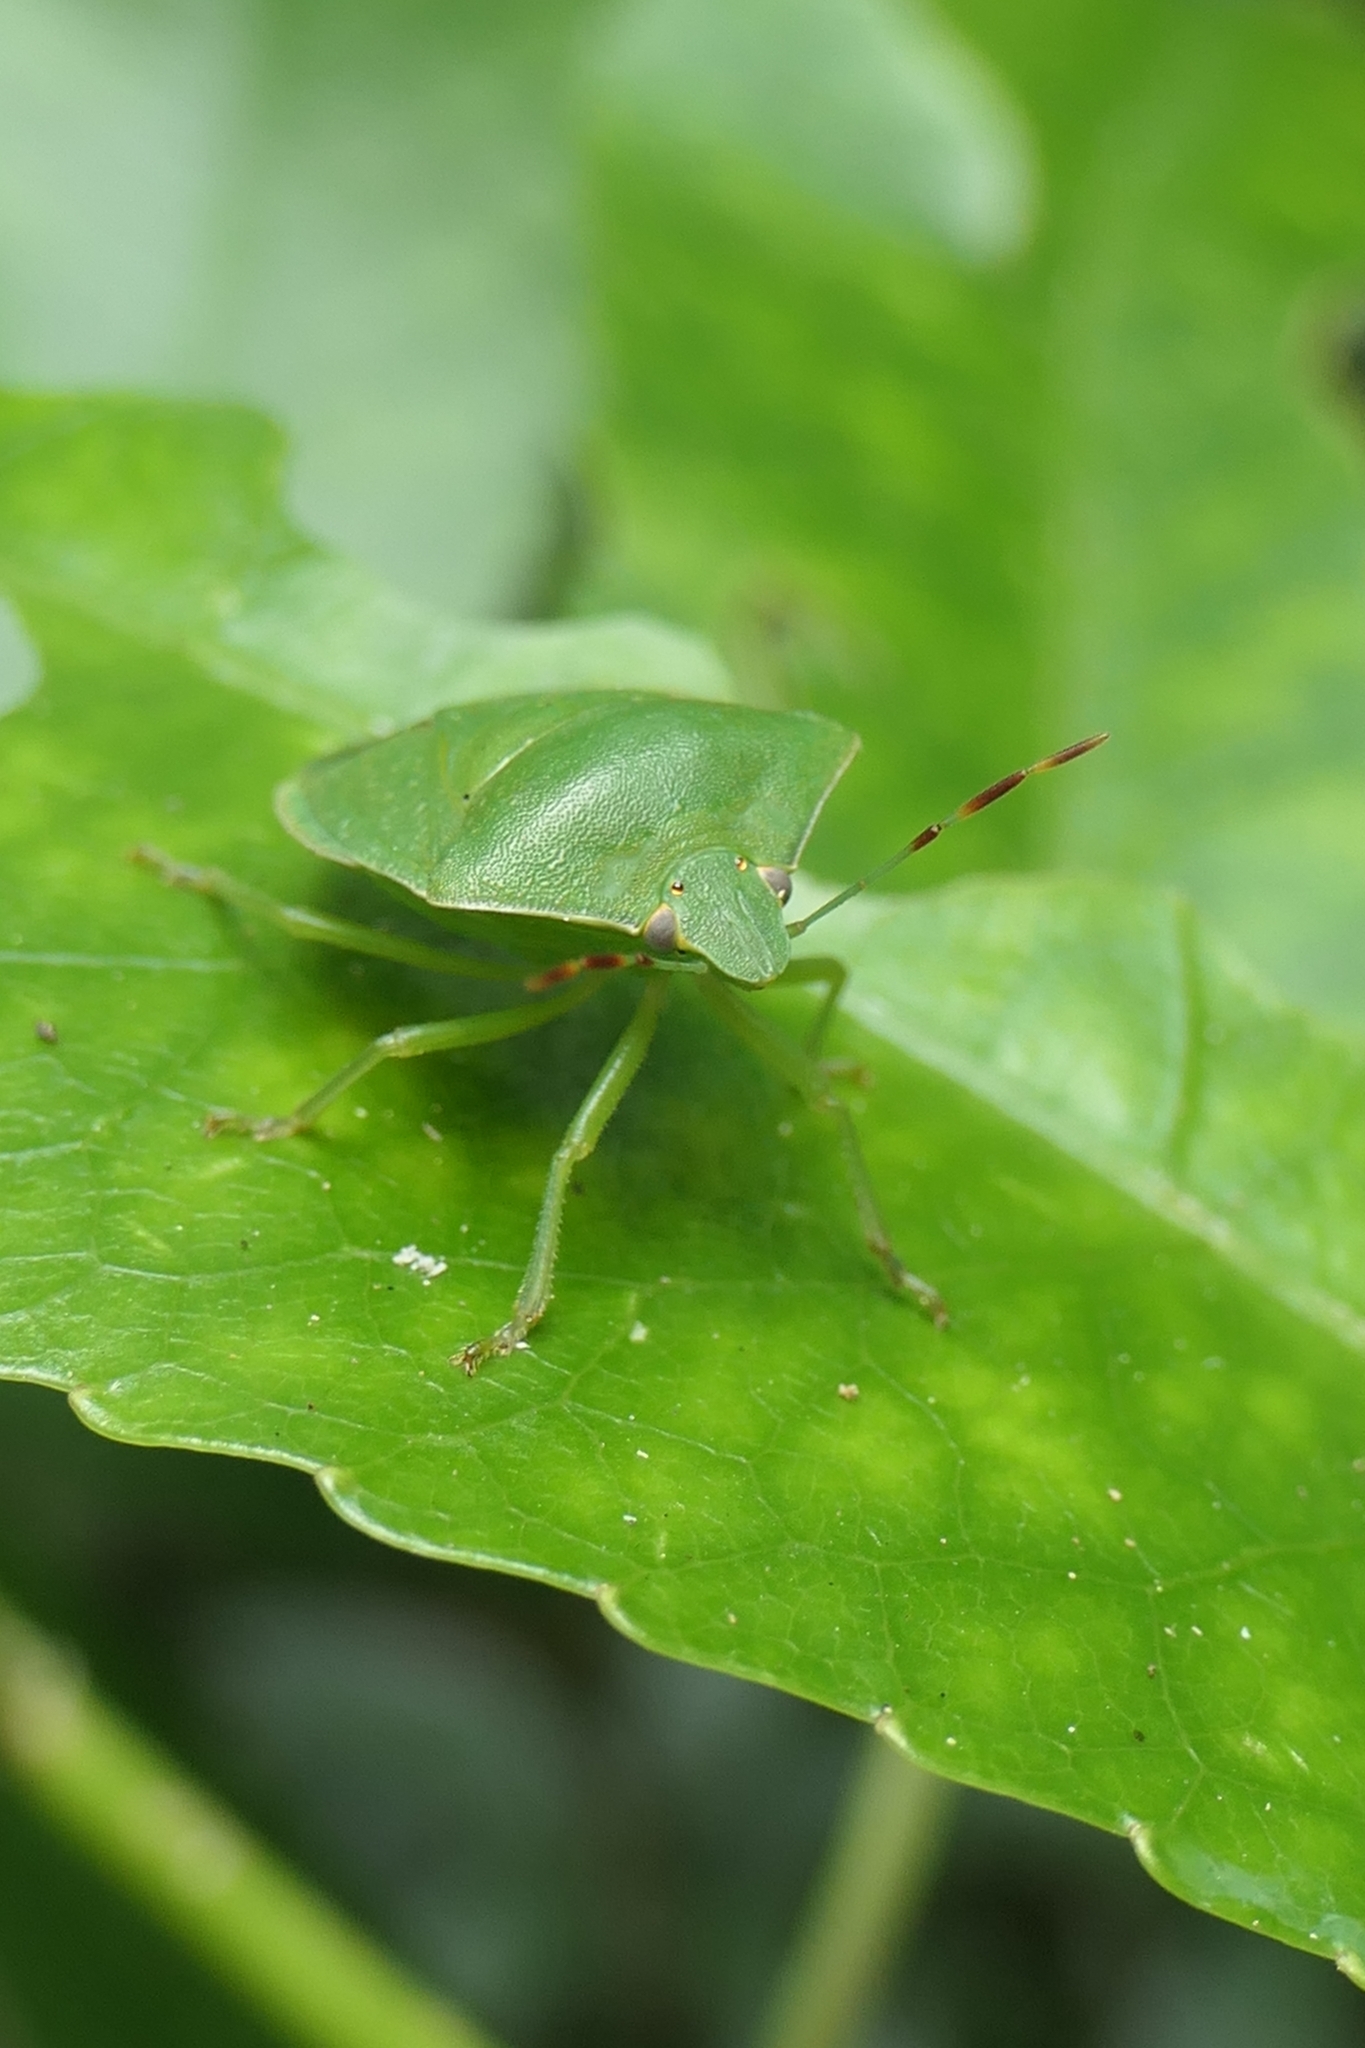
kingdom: Animalia
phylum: Arthropoda
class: Insecta
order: Hemiptera
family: Pentatomidae
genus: Nezara
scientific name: Nezara viridula
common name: Southern green stink bug
